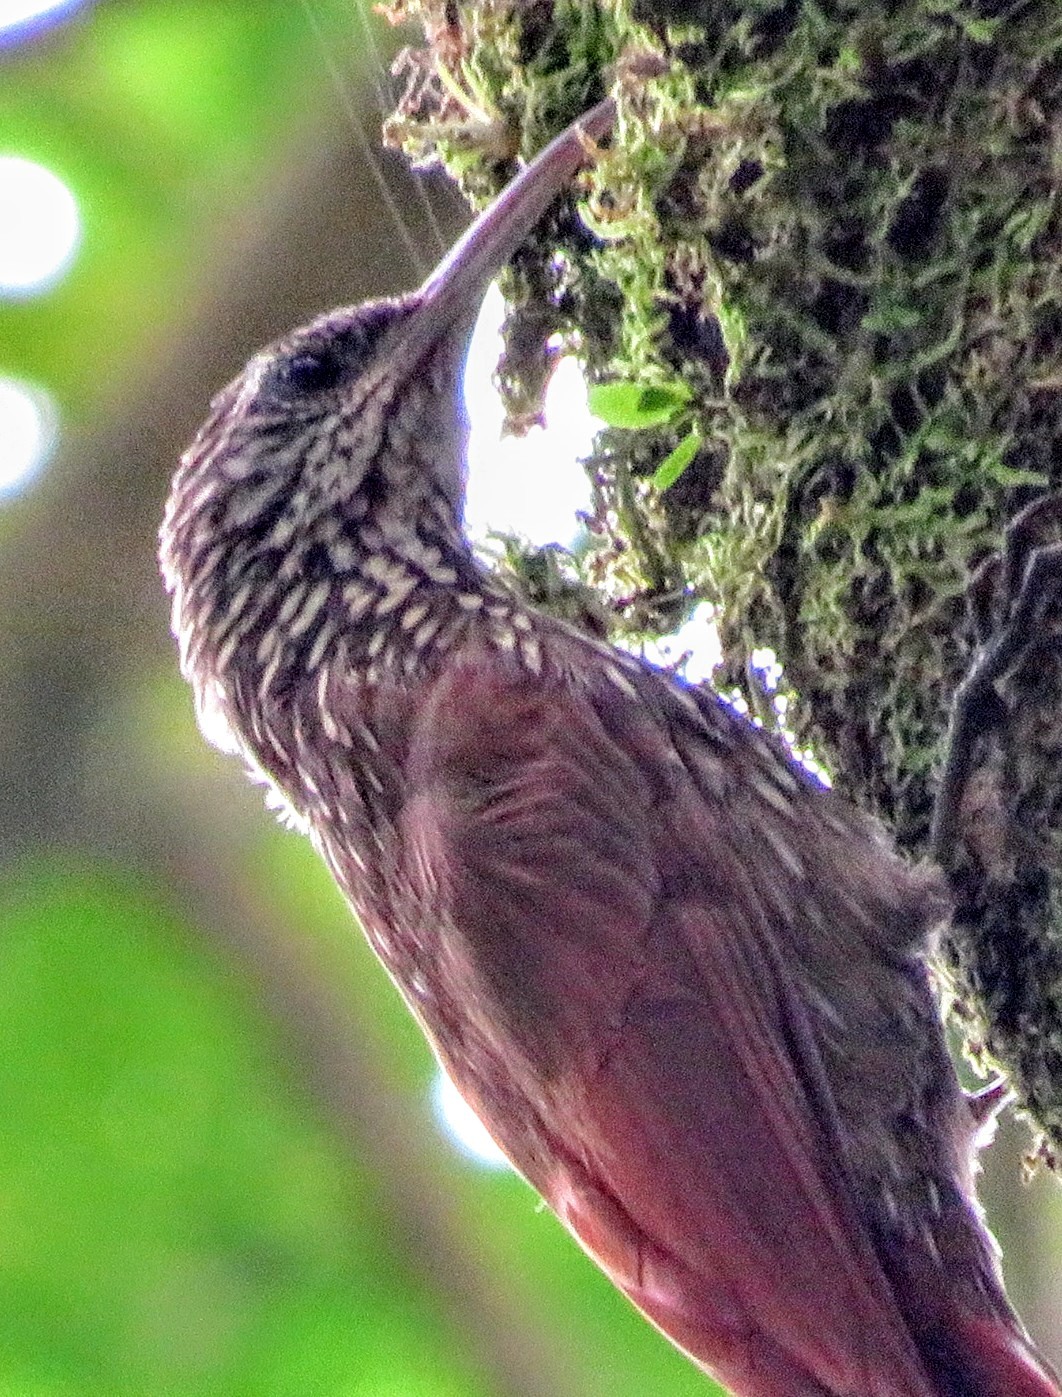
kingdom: Animalia
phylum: Chordata
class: Aves
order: Passeriformes
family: Furnariidae
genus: Lepidocolaptes
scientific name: Lepidocolaptes souleyetii
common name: Streak-headed woodcreeper
